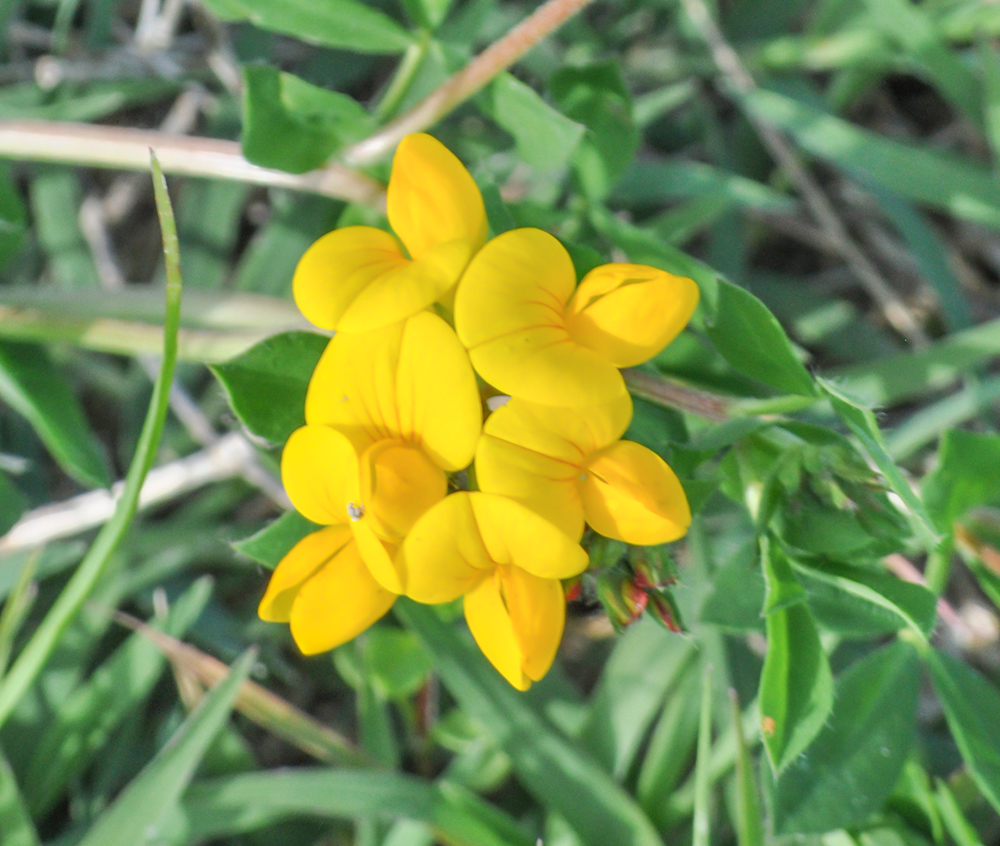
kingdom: Plantae
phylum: Tracheophyta
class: Magnoliopsida
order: Fabales
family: Fabaceae
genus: Lotus
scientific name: Lotus corniculatus
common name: Common bird's-foot-trefoil
